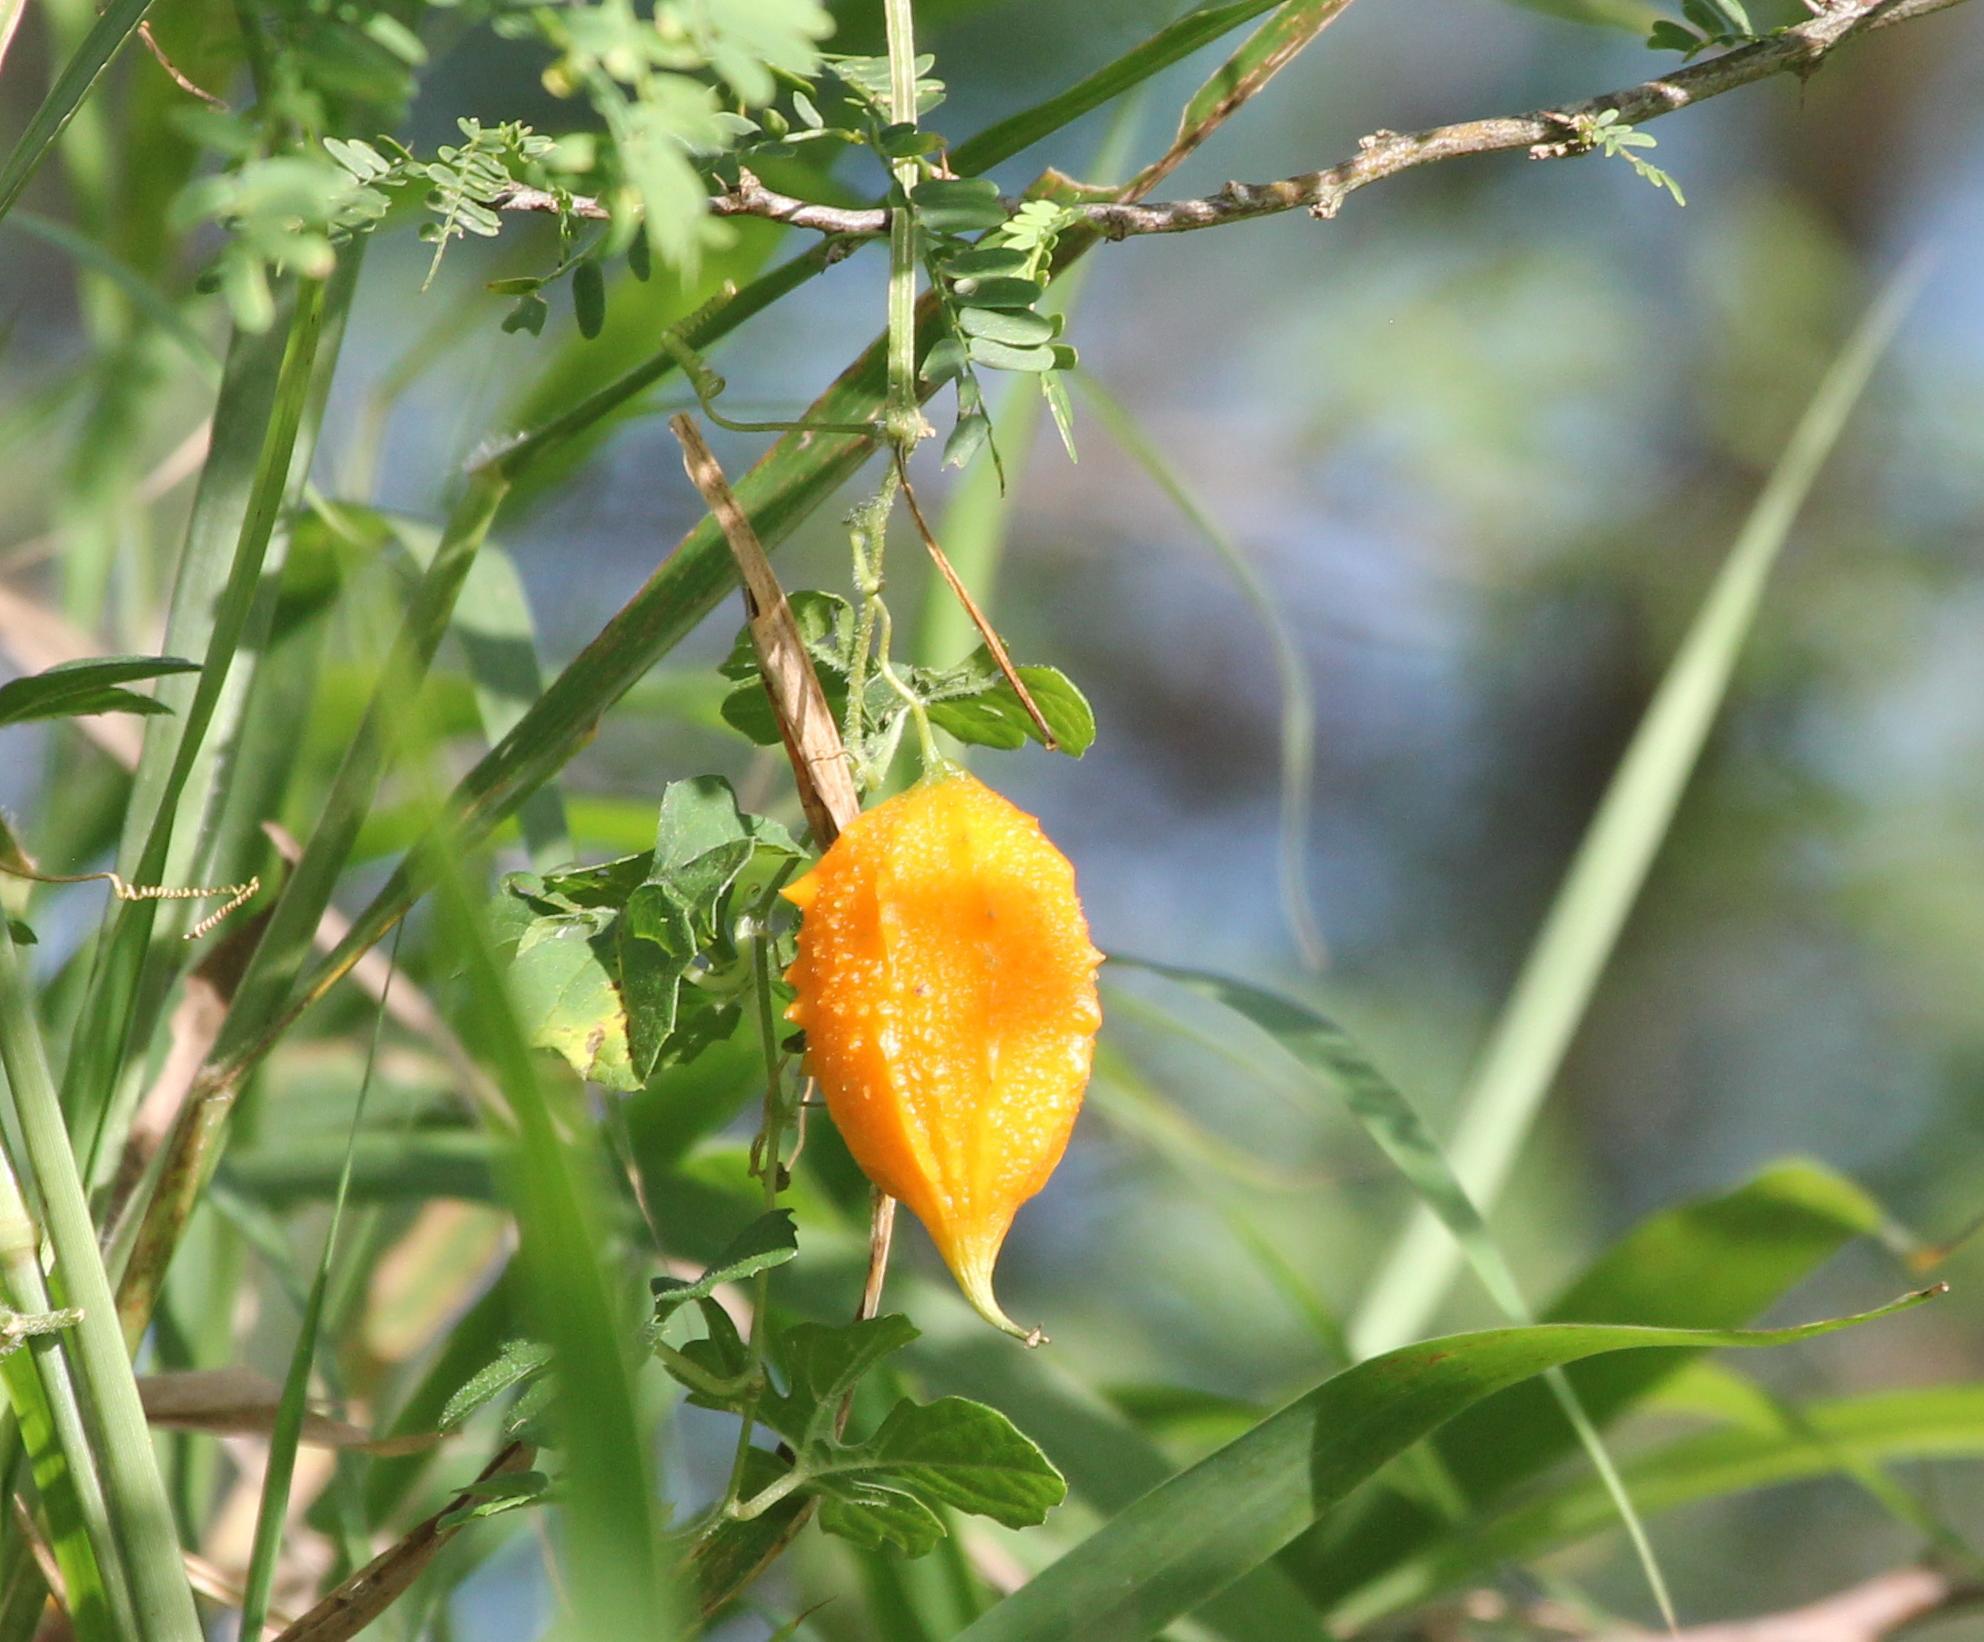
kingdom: Plantae
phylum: Tracheophyta
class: Magnoliopsida
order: Cucurbitales
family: Cucurbitaceae
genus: Momordica
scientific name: Momordica charantia
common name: Balsampear
